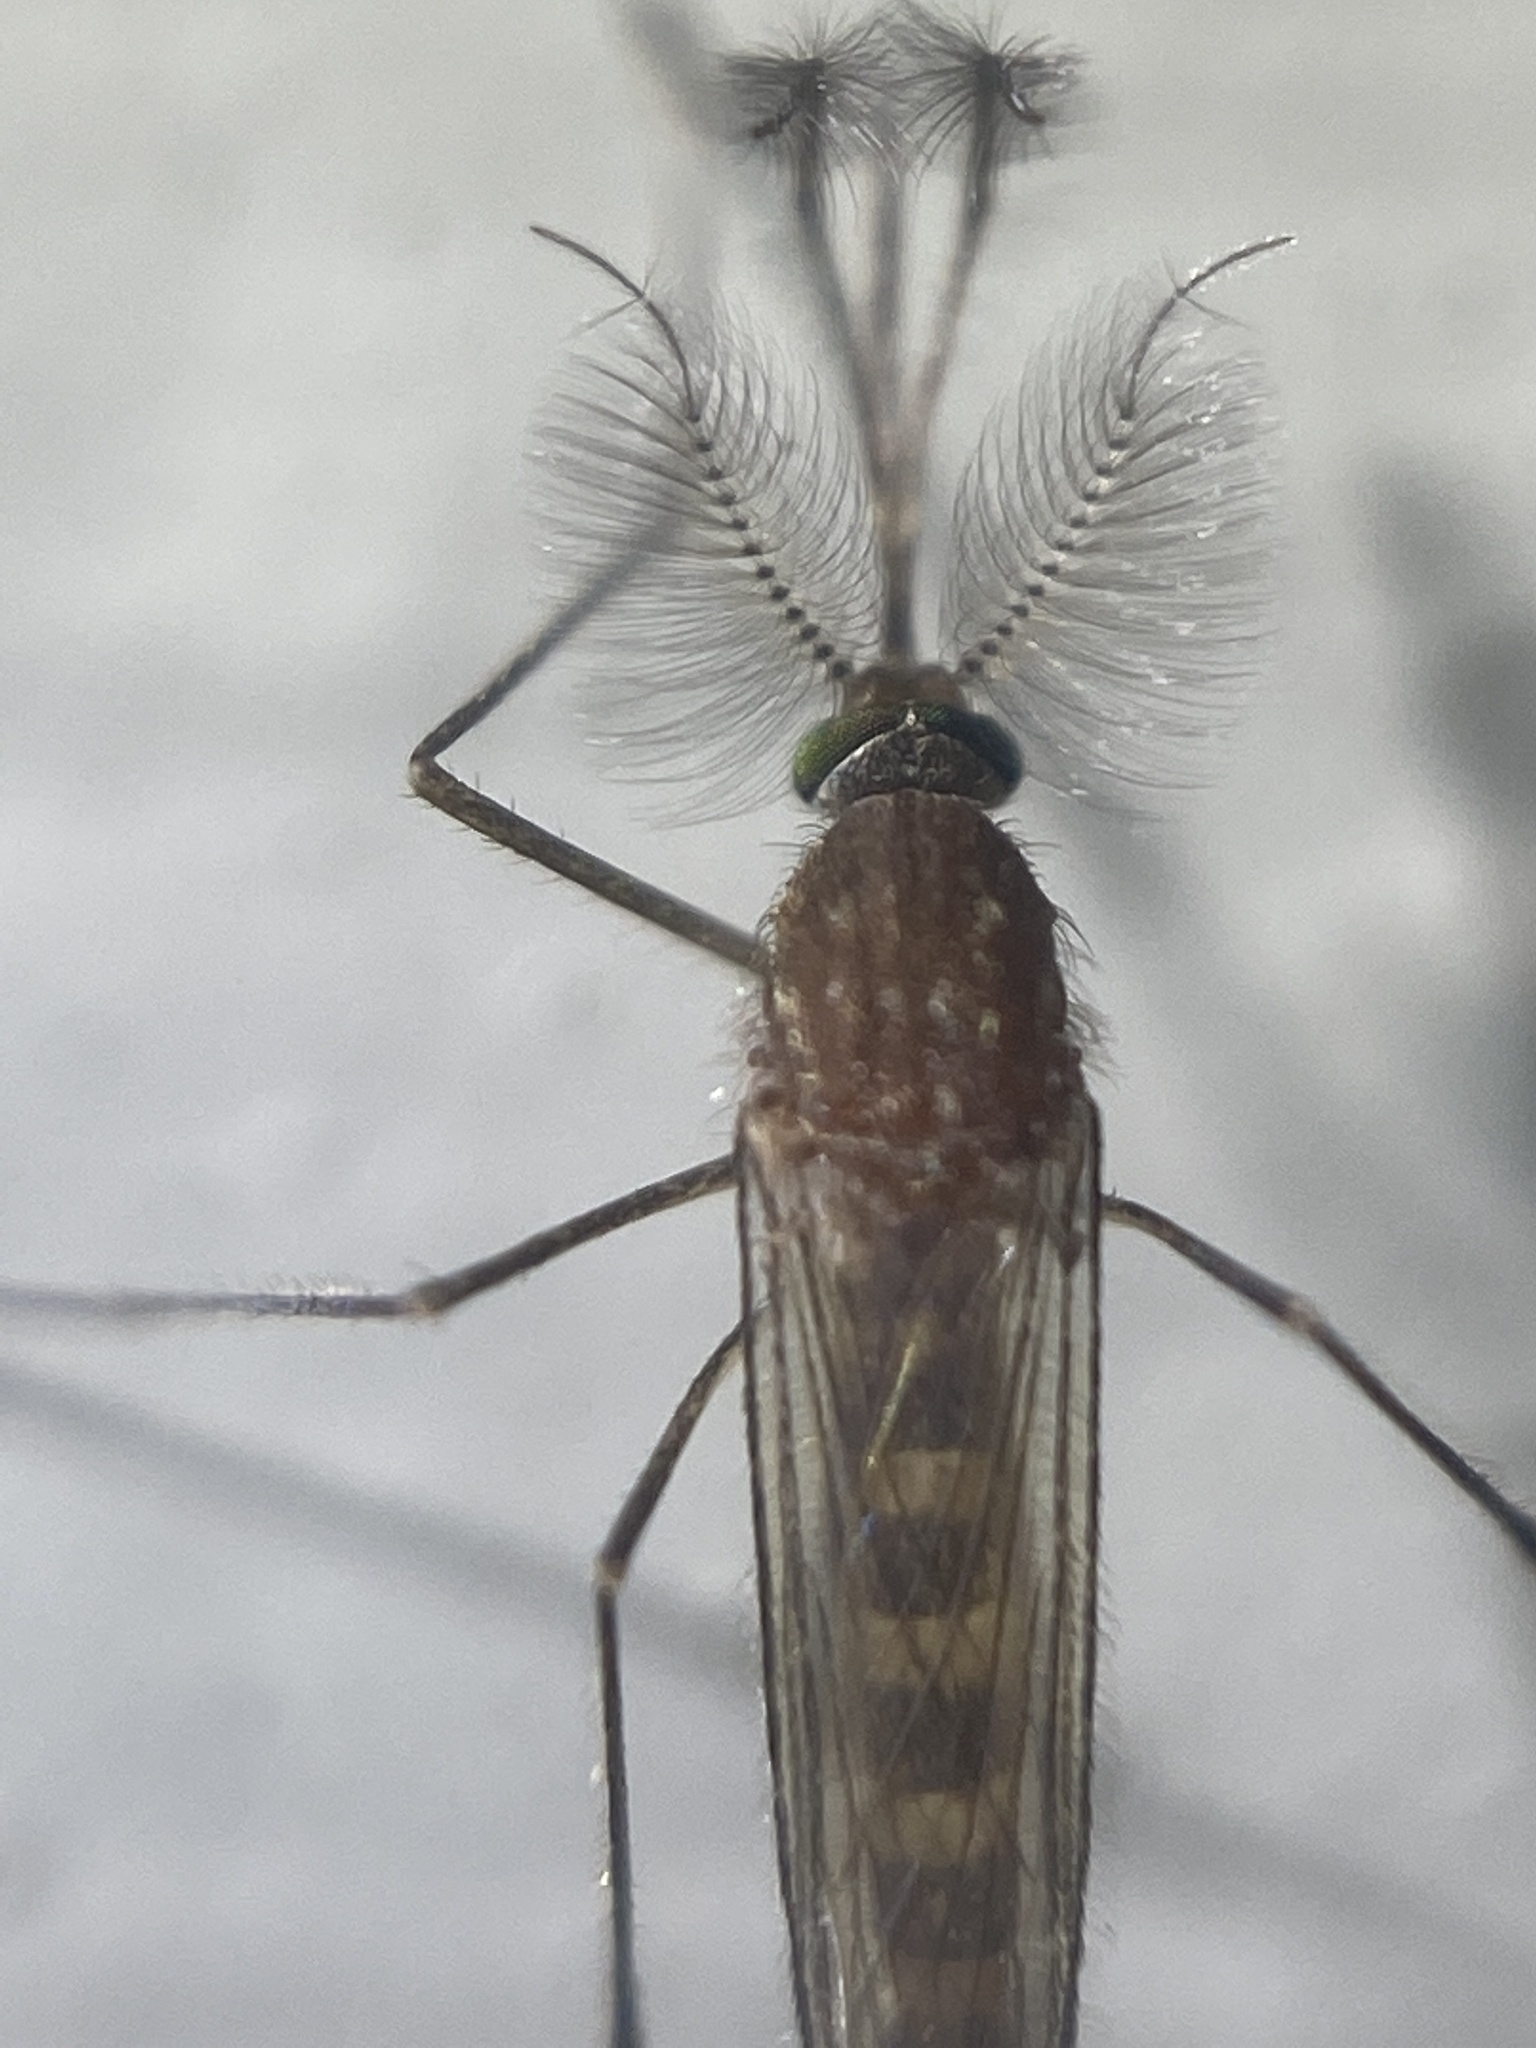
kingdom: Animalia
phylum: Arthropoda
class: Insecta
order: Diptera
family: Culicidae
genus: Culex
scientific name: Culex restuans
